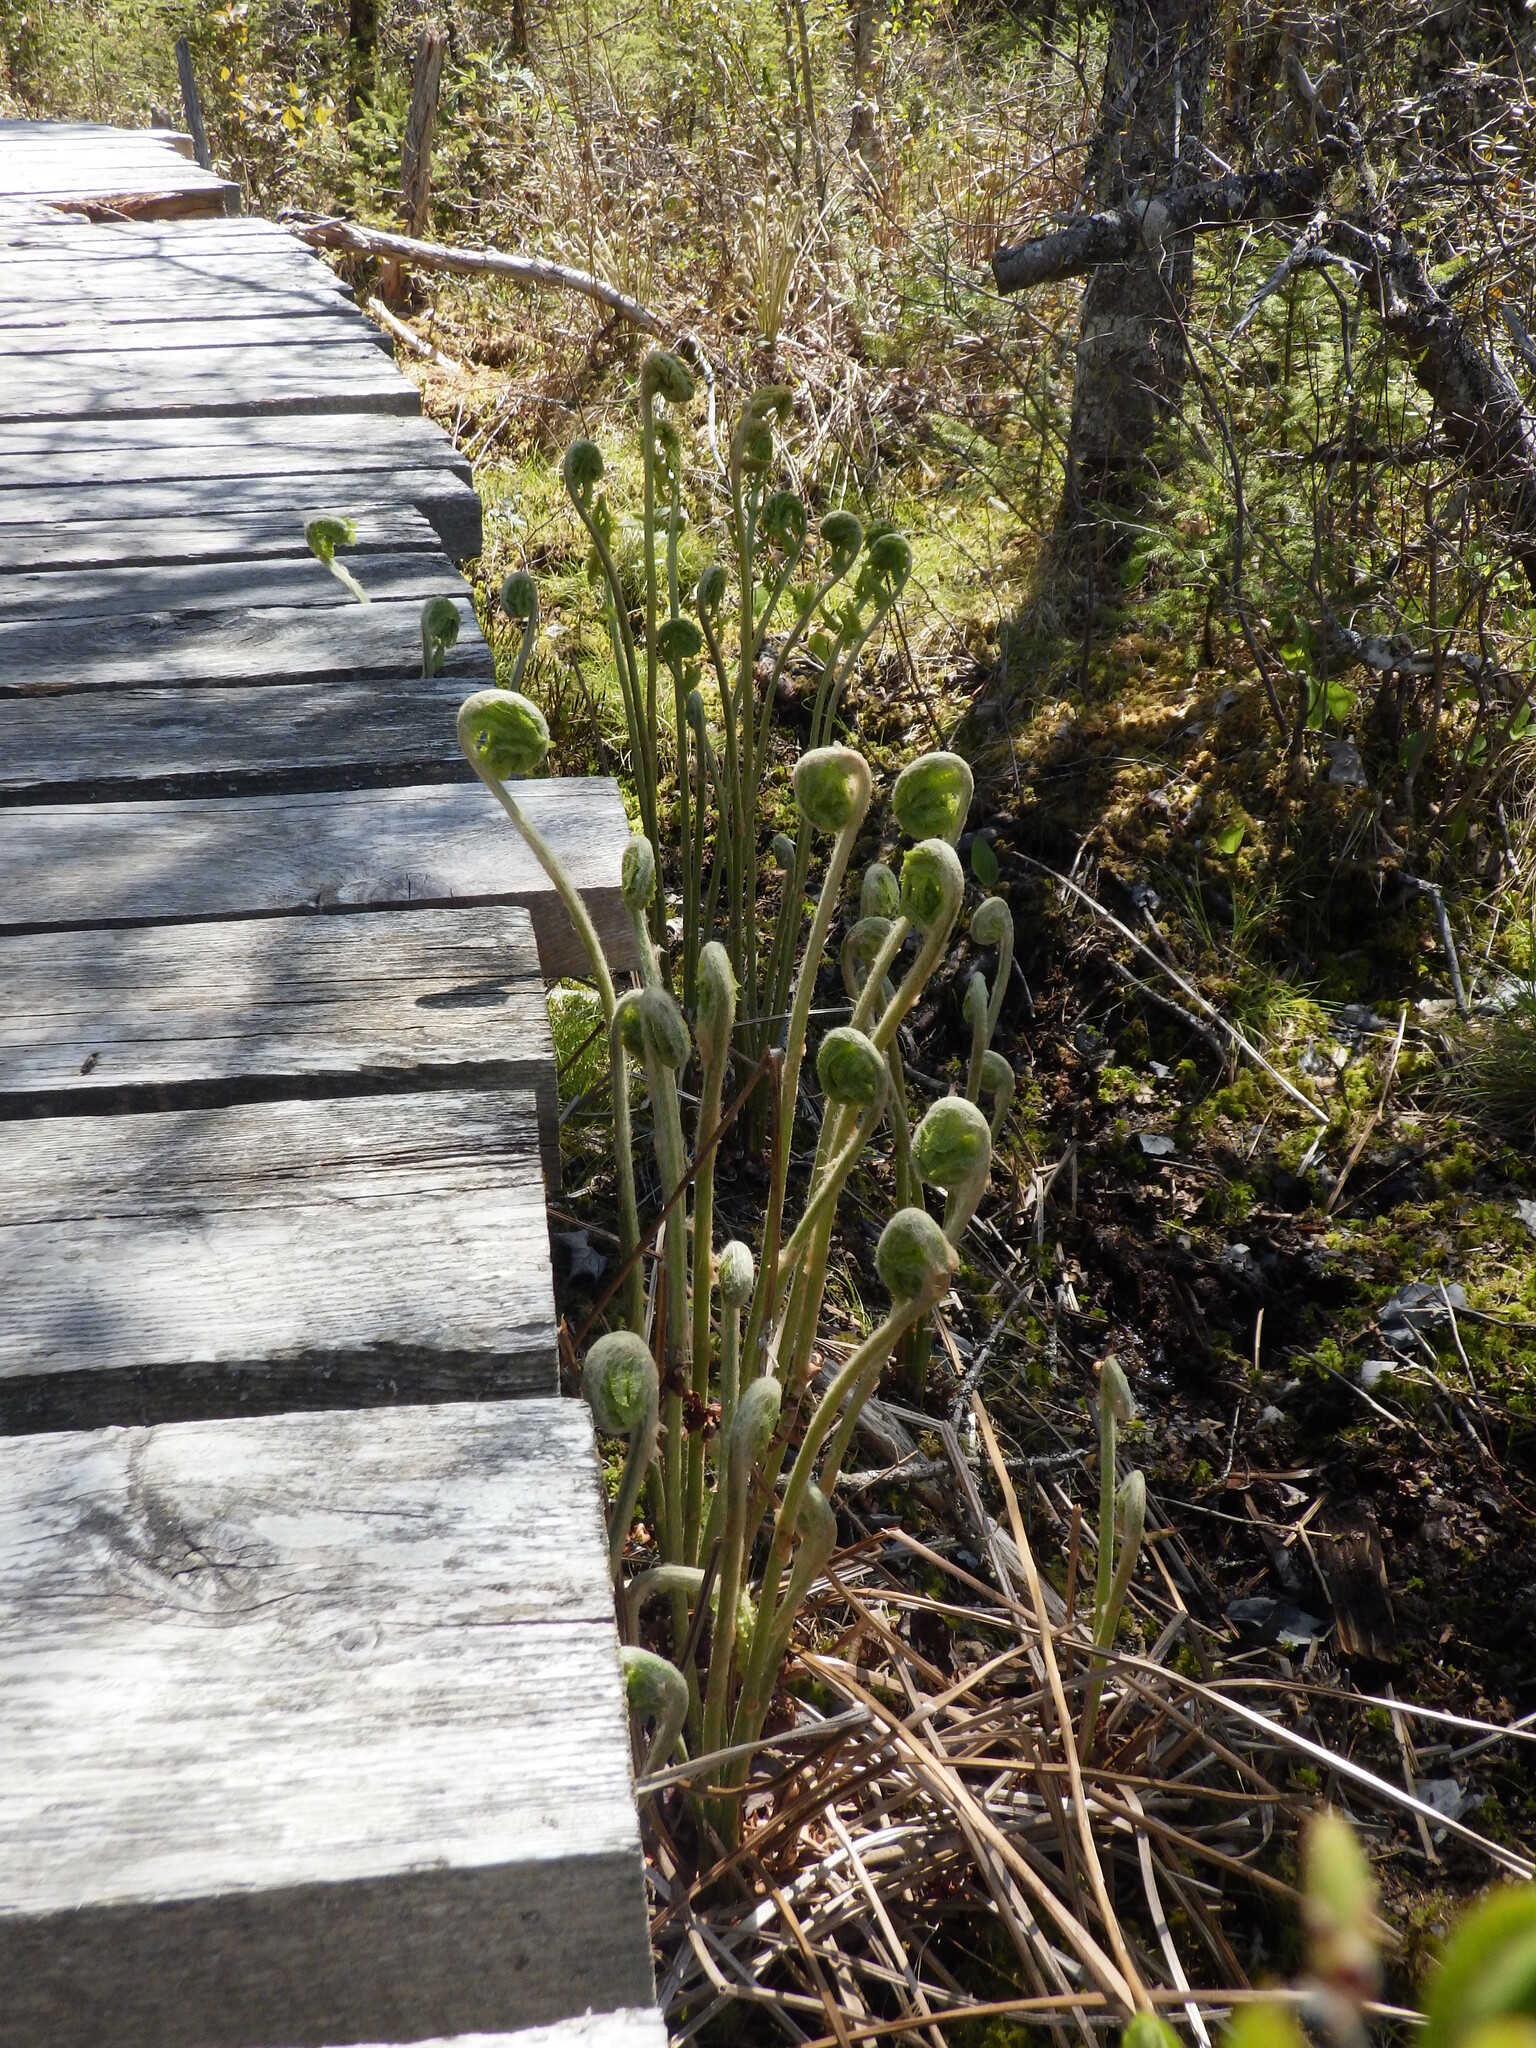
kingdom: Plantae
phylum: Tracheophyta
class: Polypodiopsida
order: Osmundales
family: Osmundaceae
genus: Osmundastrum
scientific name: Osmundastrum cinnamomeum
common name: Cinnamon fern
